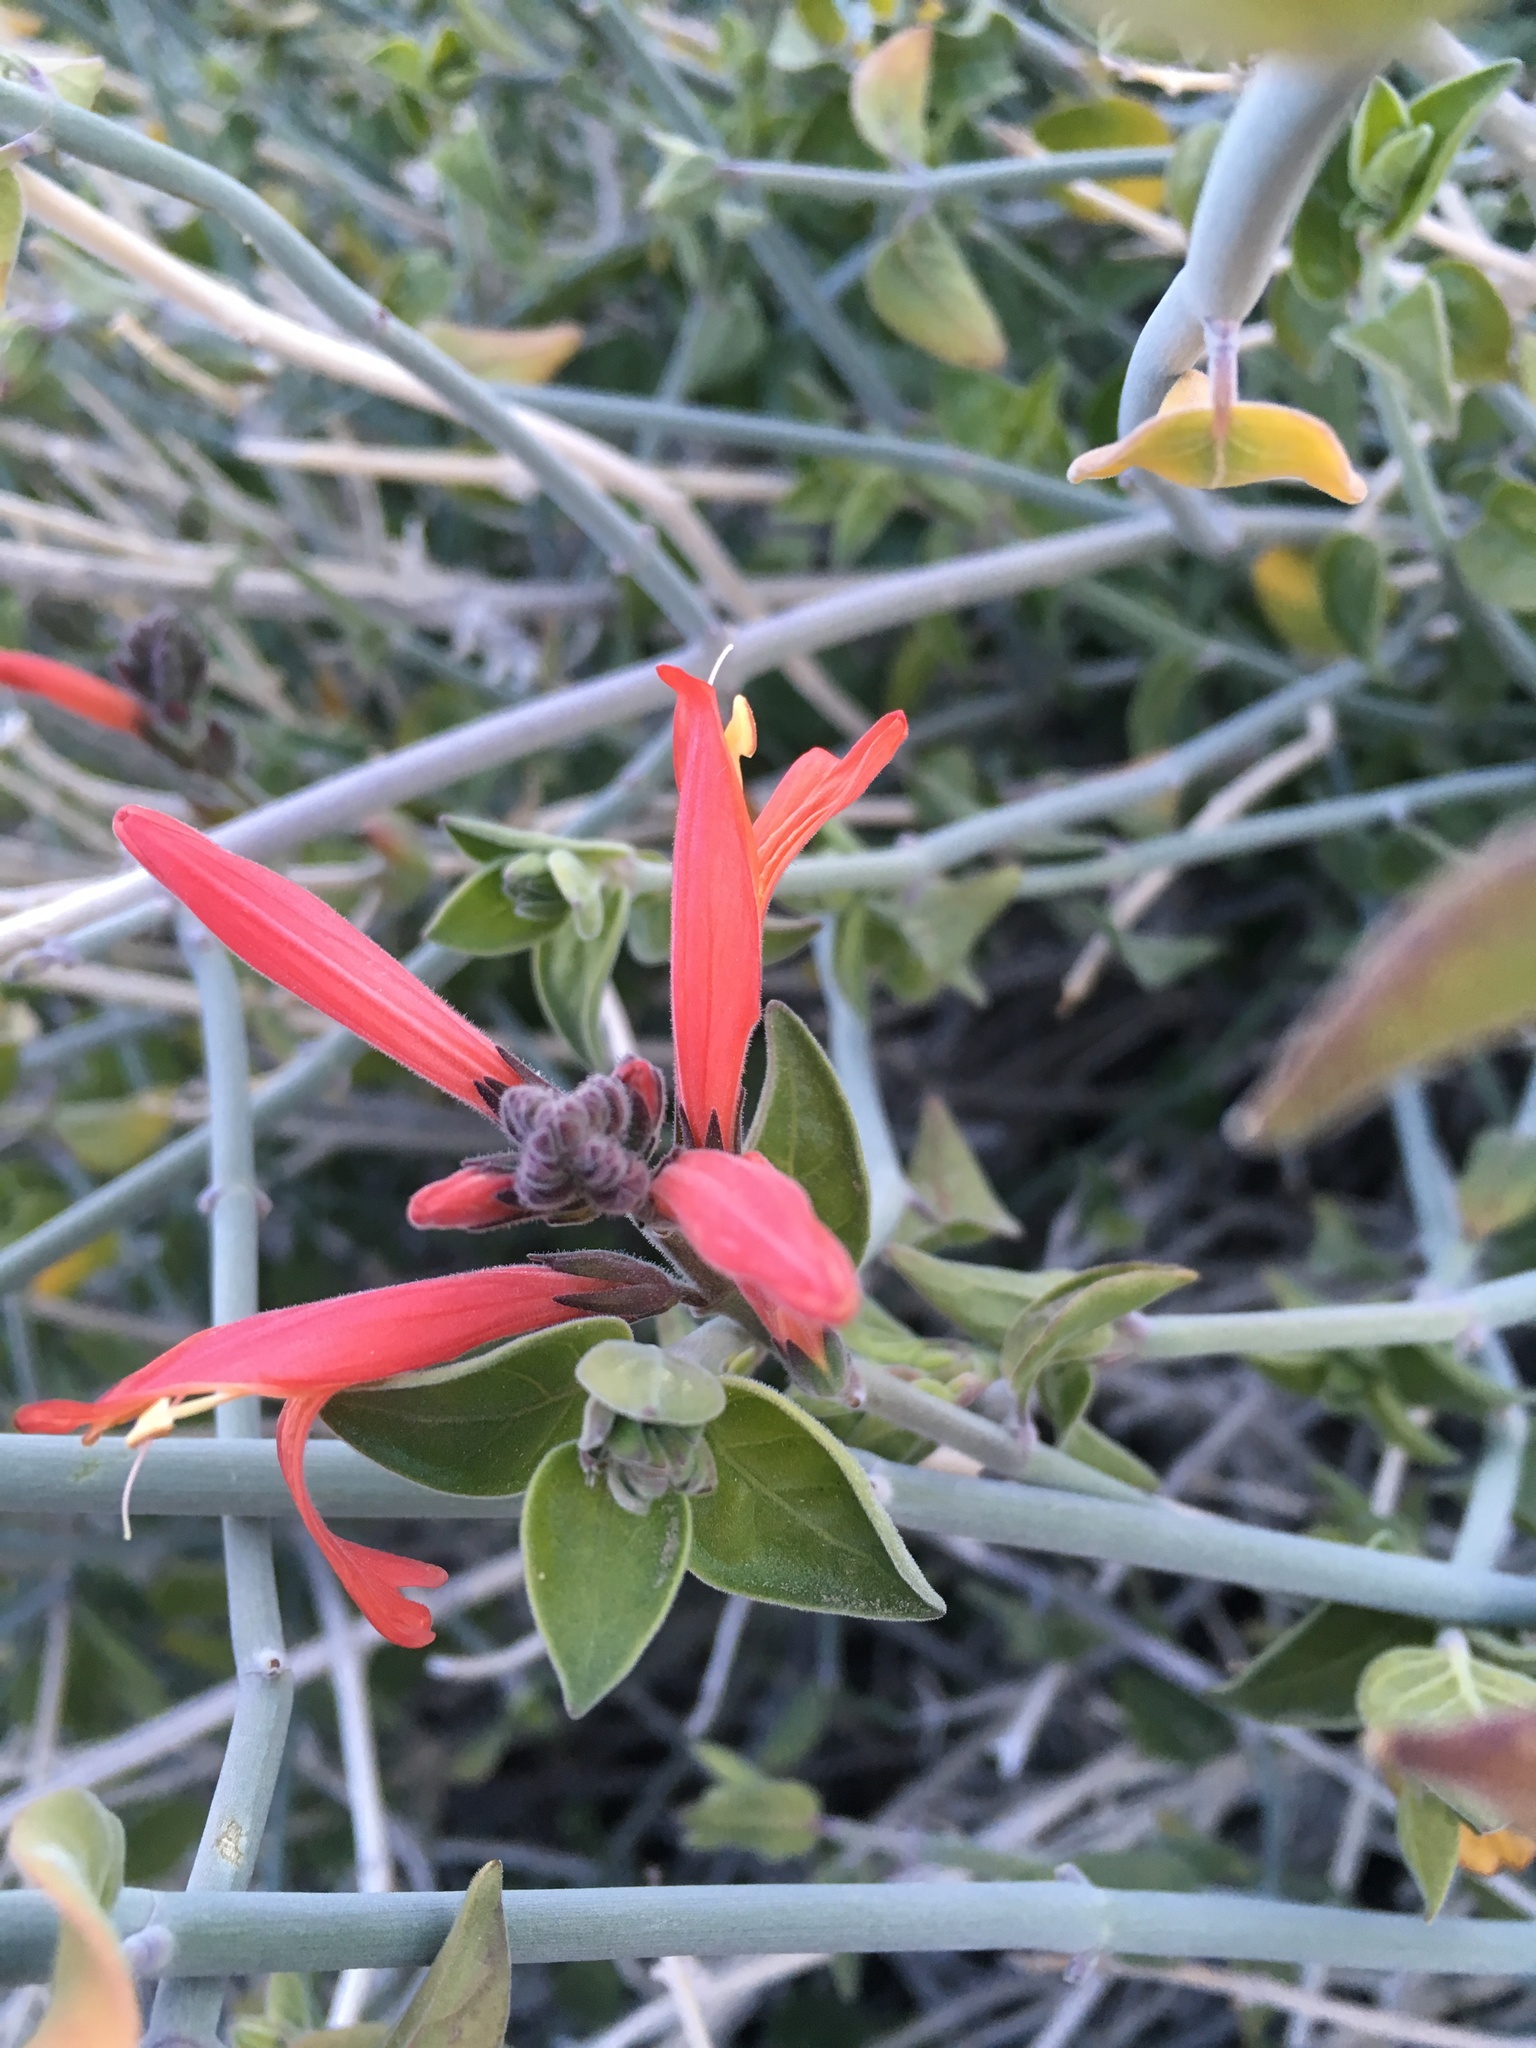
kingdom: Plantae
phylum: Tracheophyta
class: Magnoliopsida
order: Lamiales
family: Acanthaceae
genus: Justicia
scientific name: Justicia californica
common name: Chuparosa-honeysuckle
